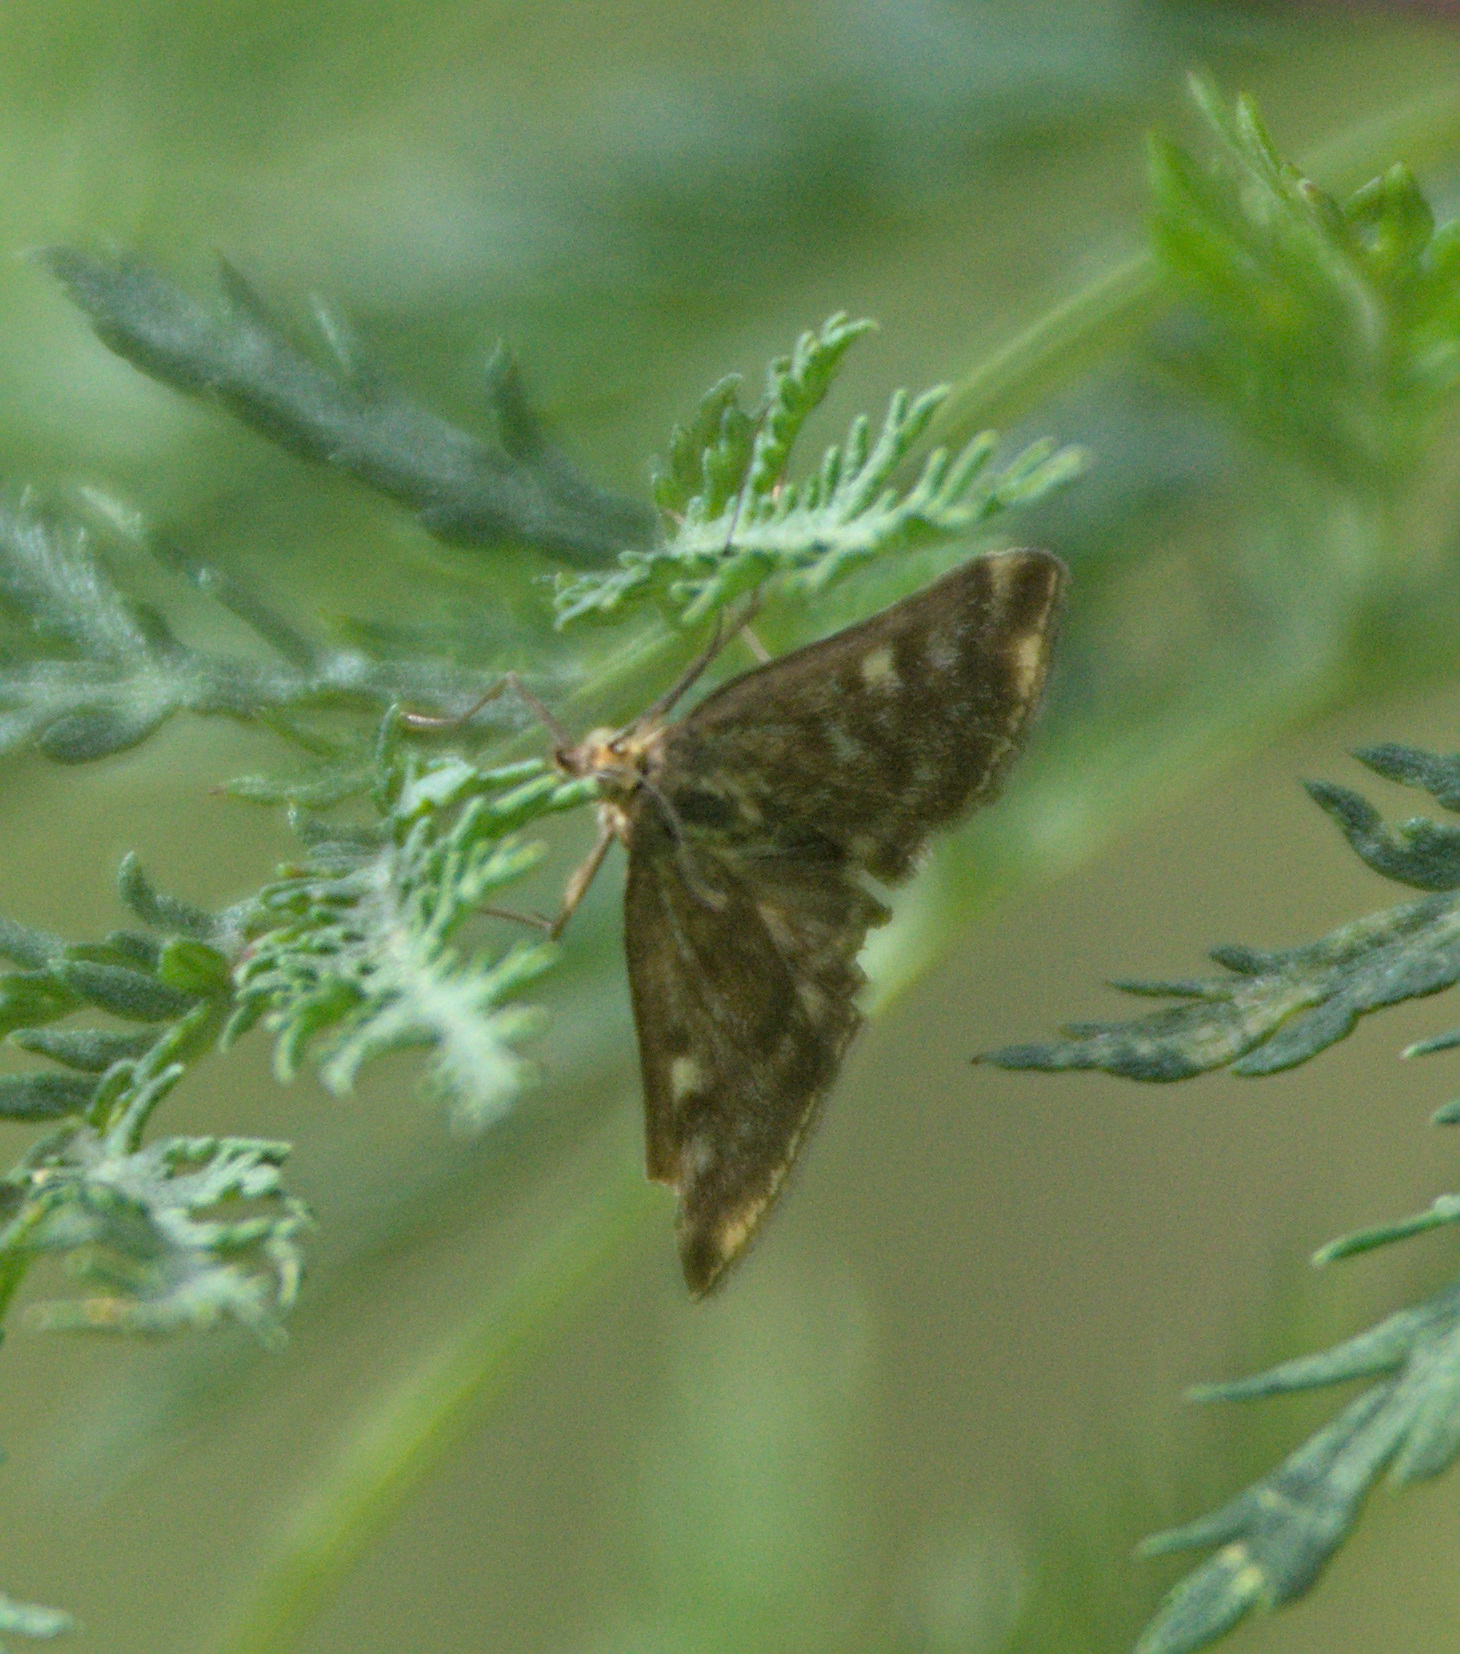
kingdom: Animalia
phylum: Arthropoda
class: Insecta
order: Lepidoptera
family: Crambidae
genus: Loxostege
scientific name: Loxostege sticticalis
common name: Crambid moth
